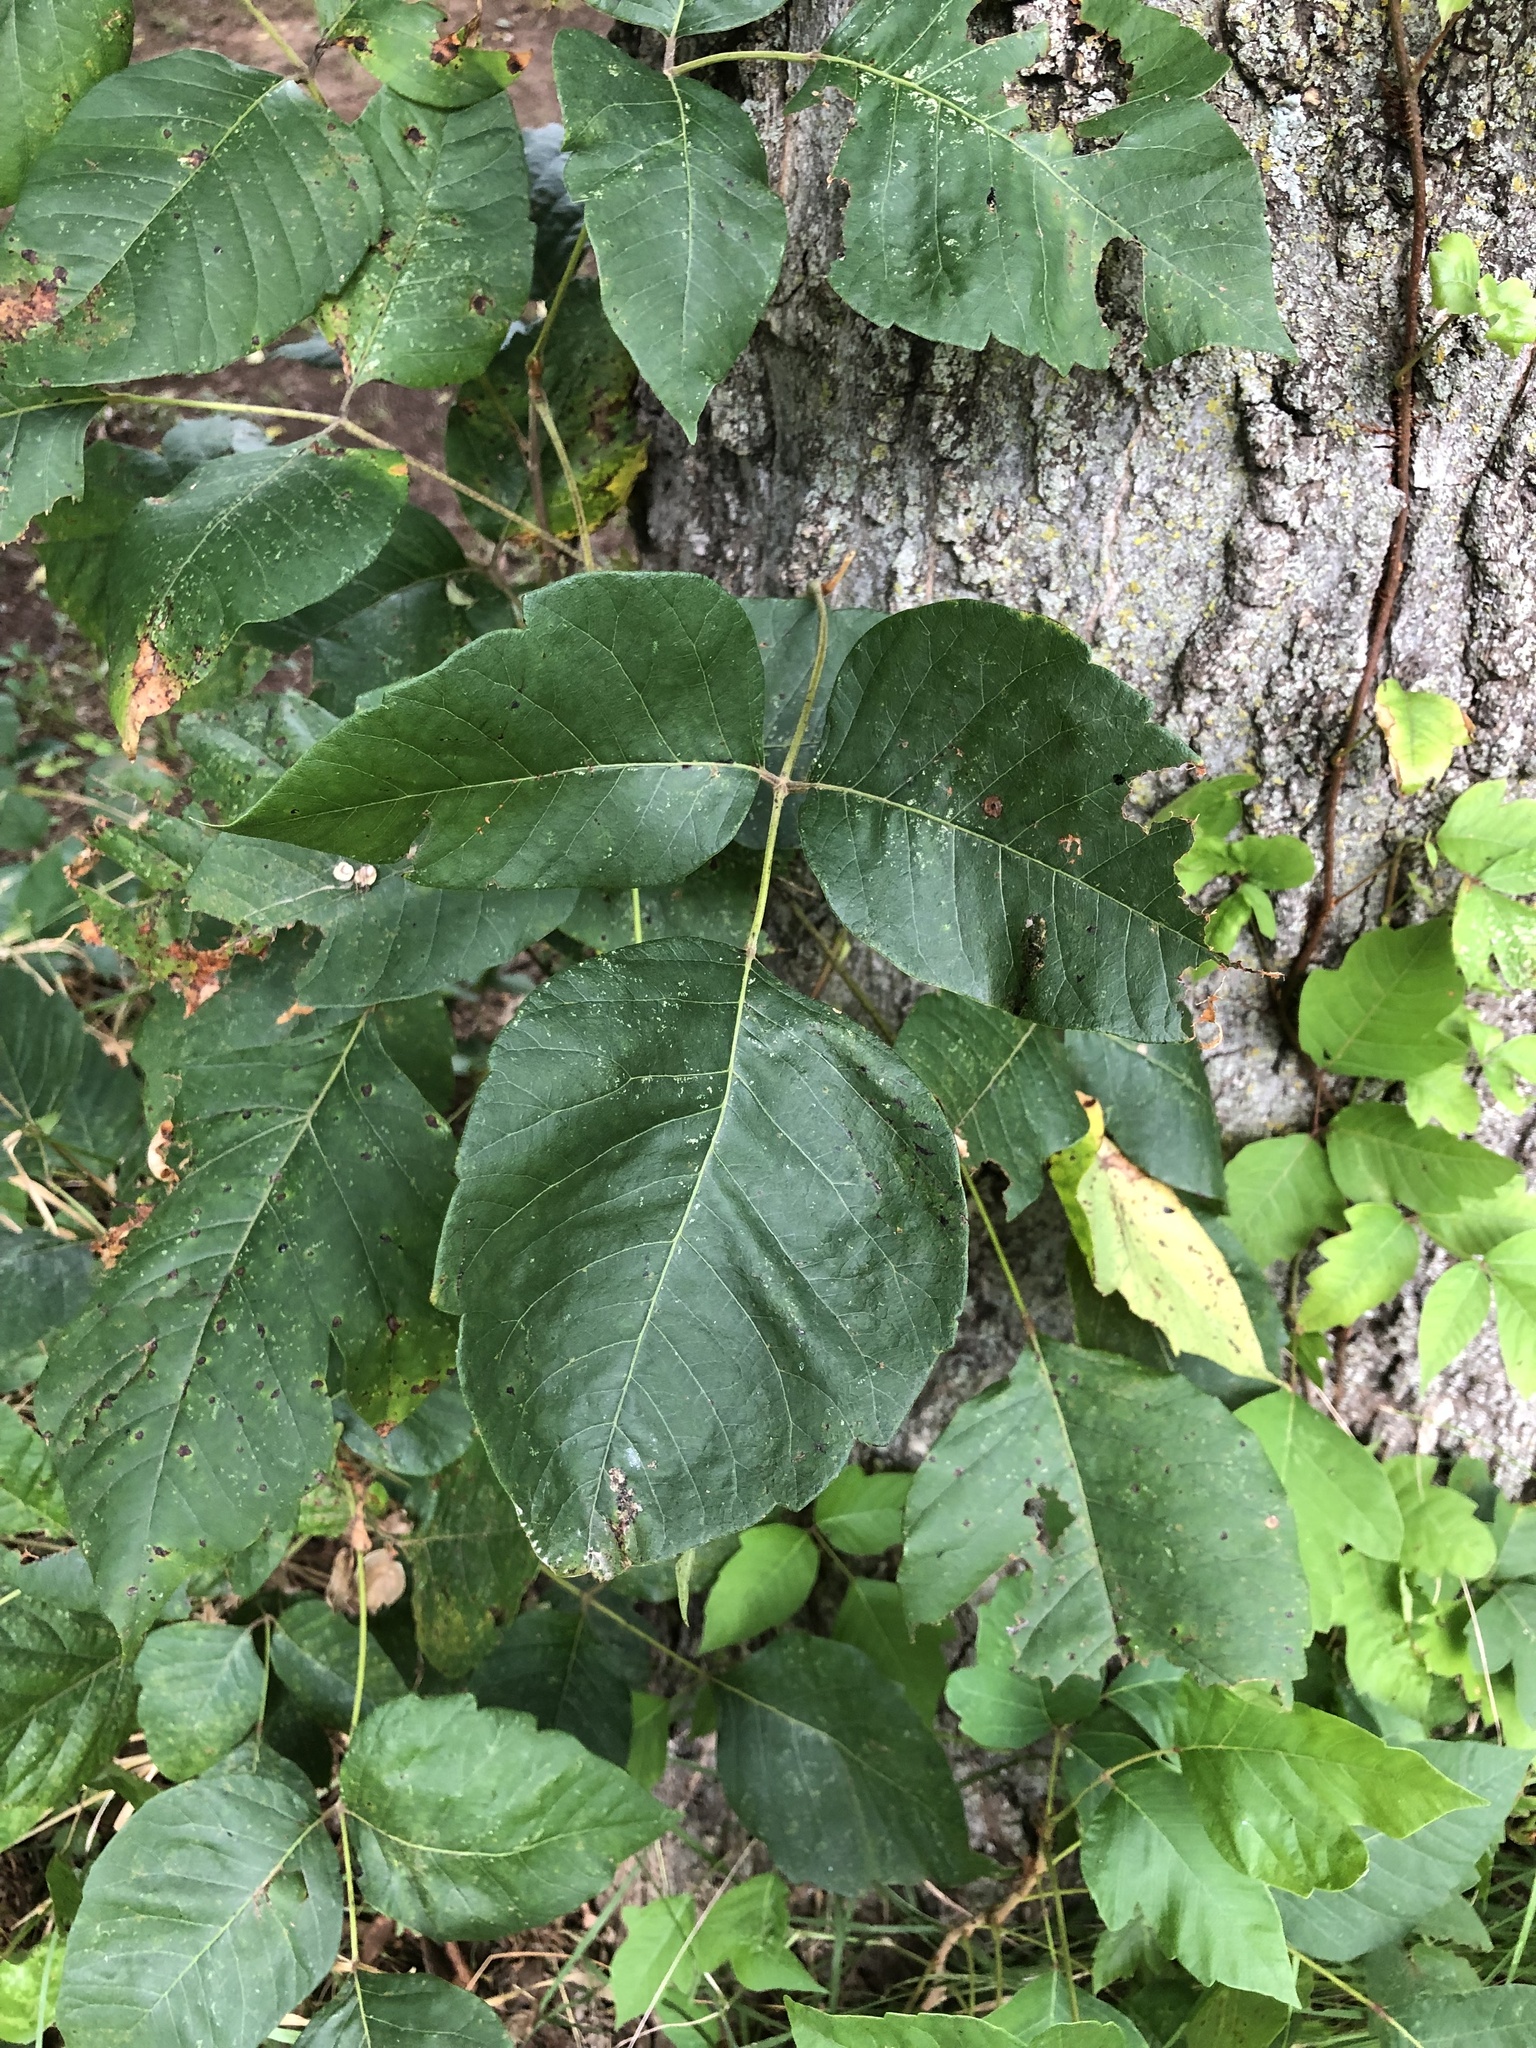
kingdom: Plantae
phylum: Tracheophyta
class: Magnoliopsida
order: Sapindales
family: Anacardiaceae
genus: Toxicodendron
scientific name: Toxicodendron radicans
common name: Poison ivy
